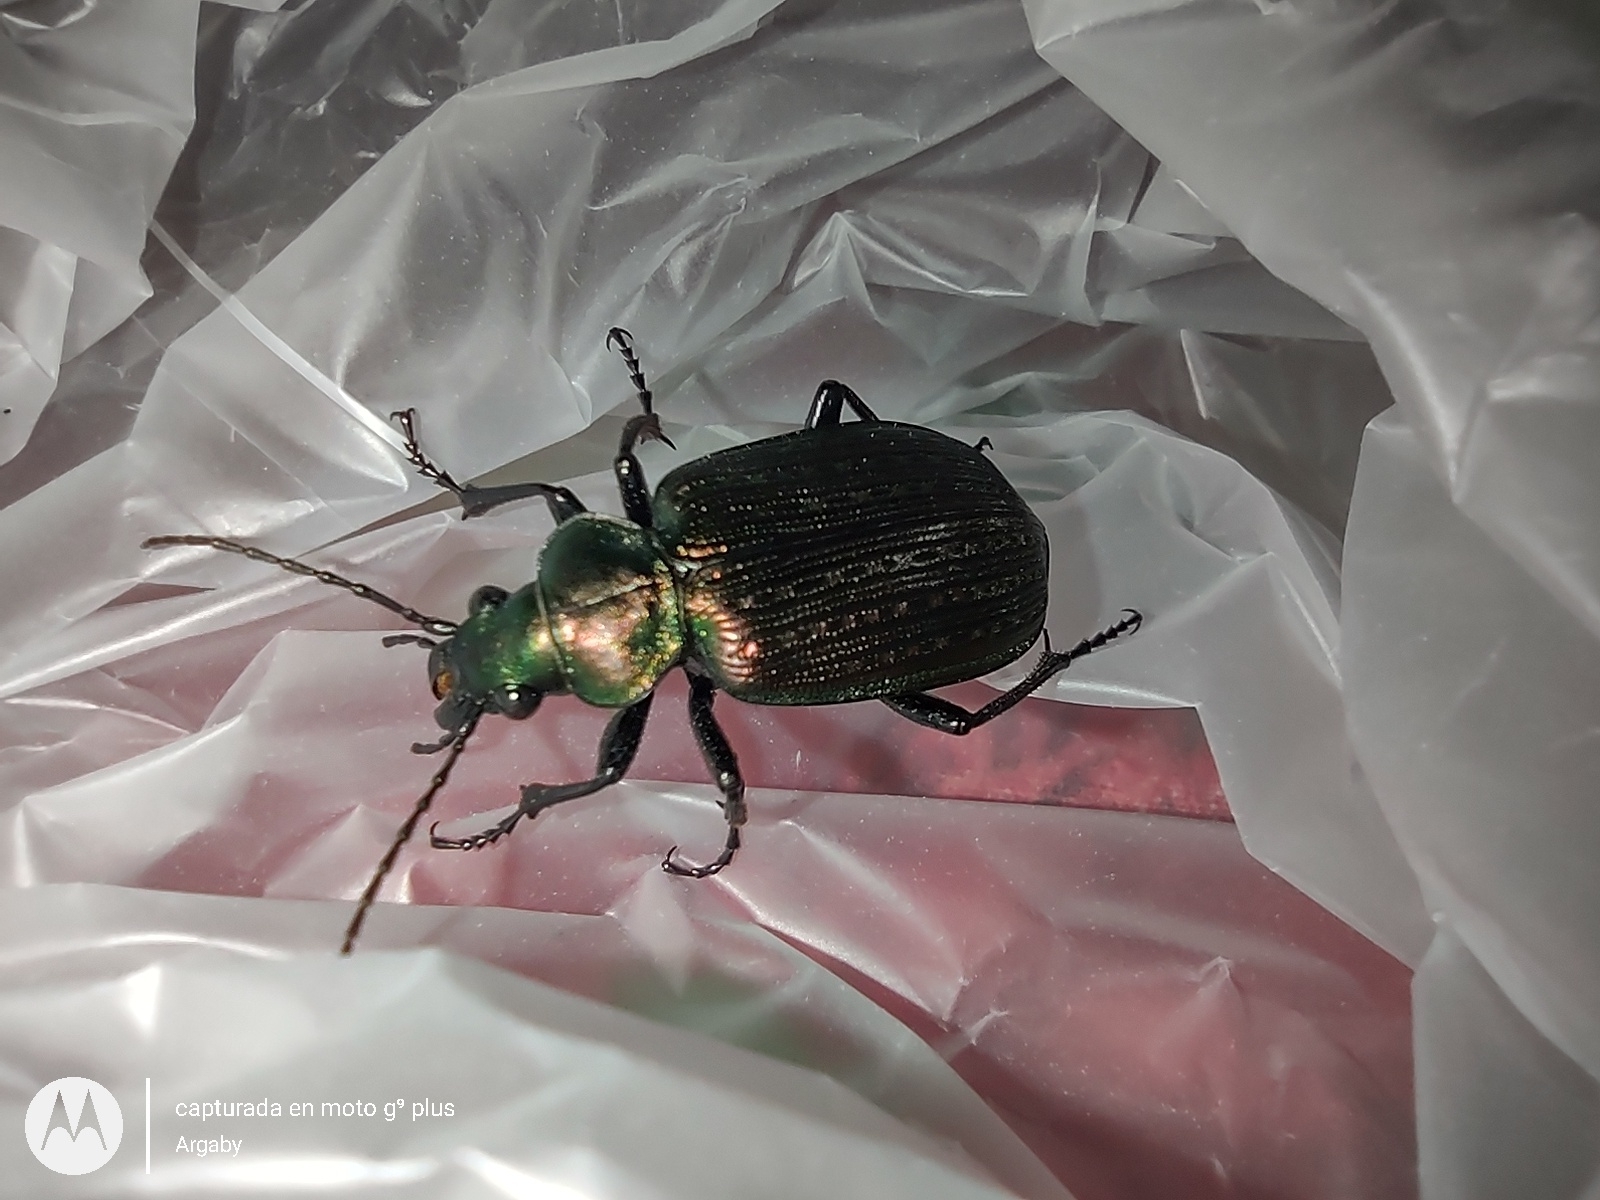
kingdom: Animalia
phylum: Arthropoda
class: Insecta
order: Coleoptera
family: Carabidae
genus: Calosoma
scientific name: Calosoma alternans
